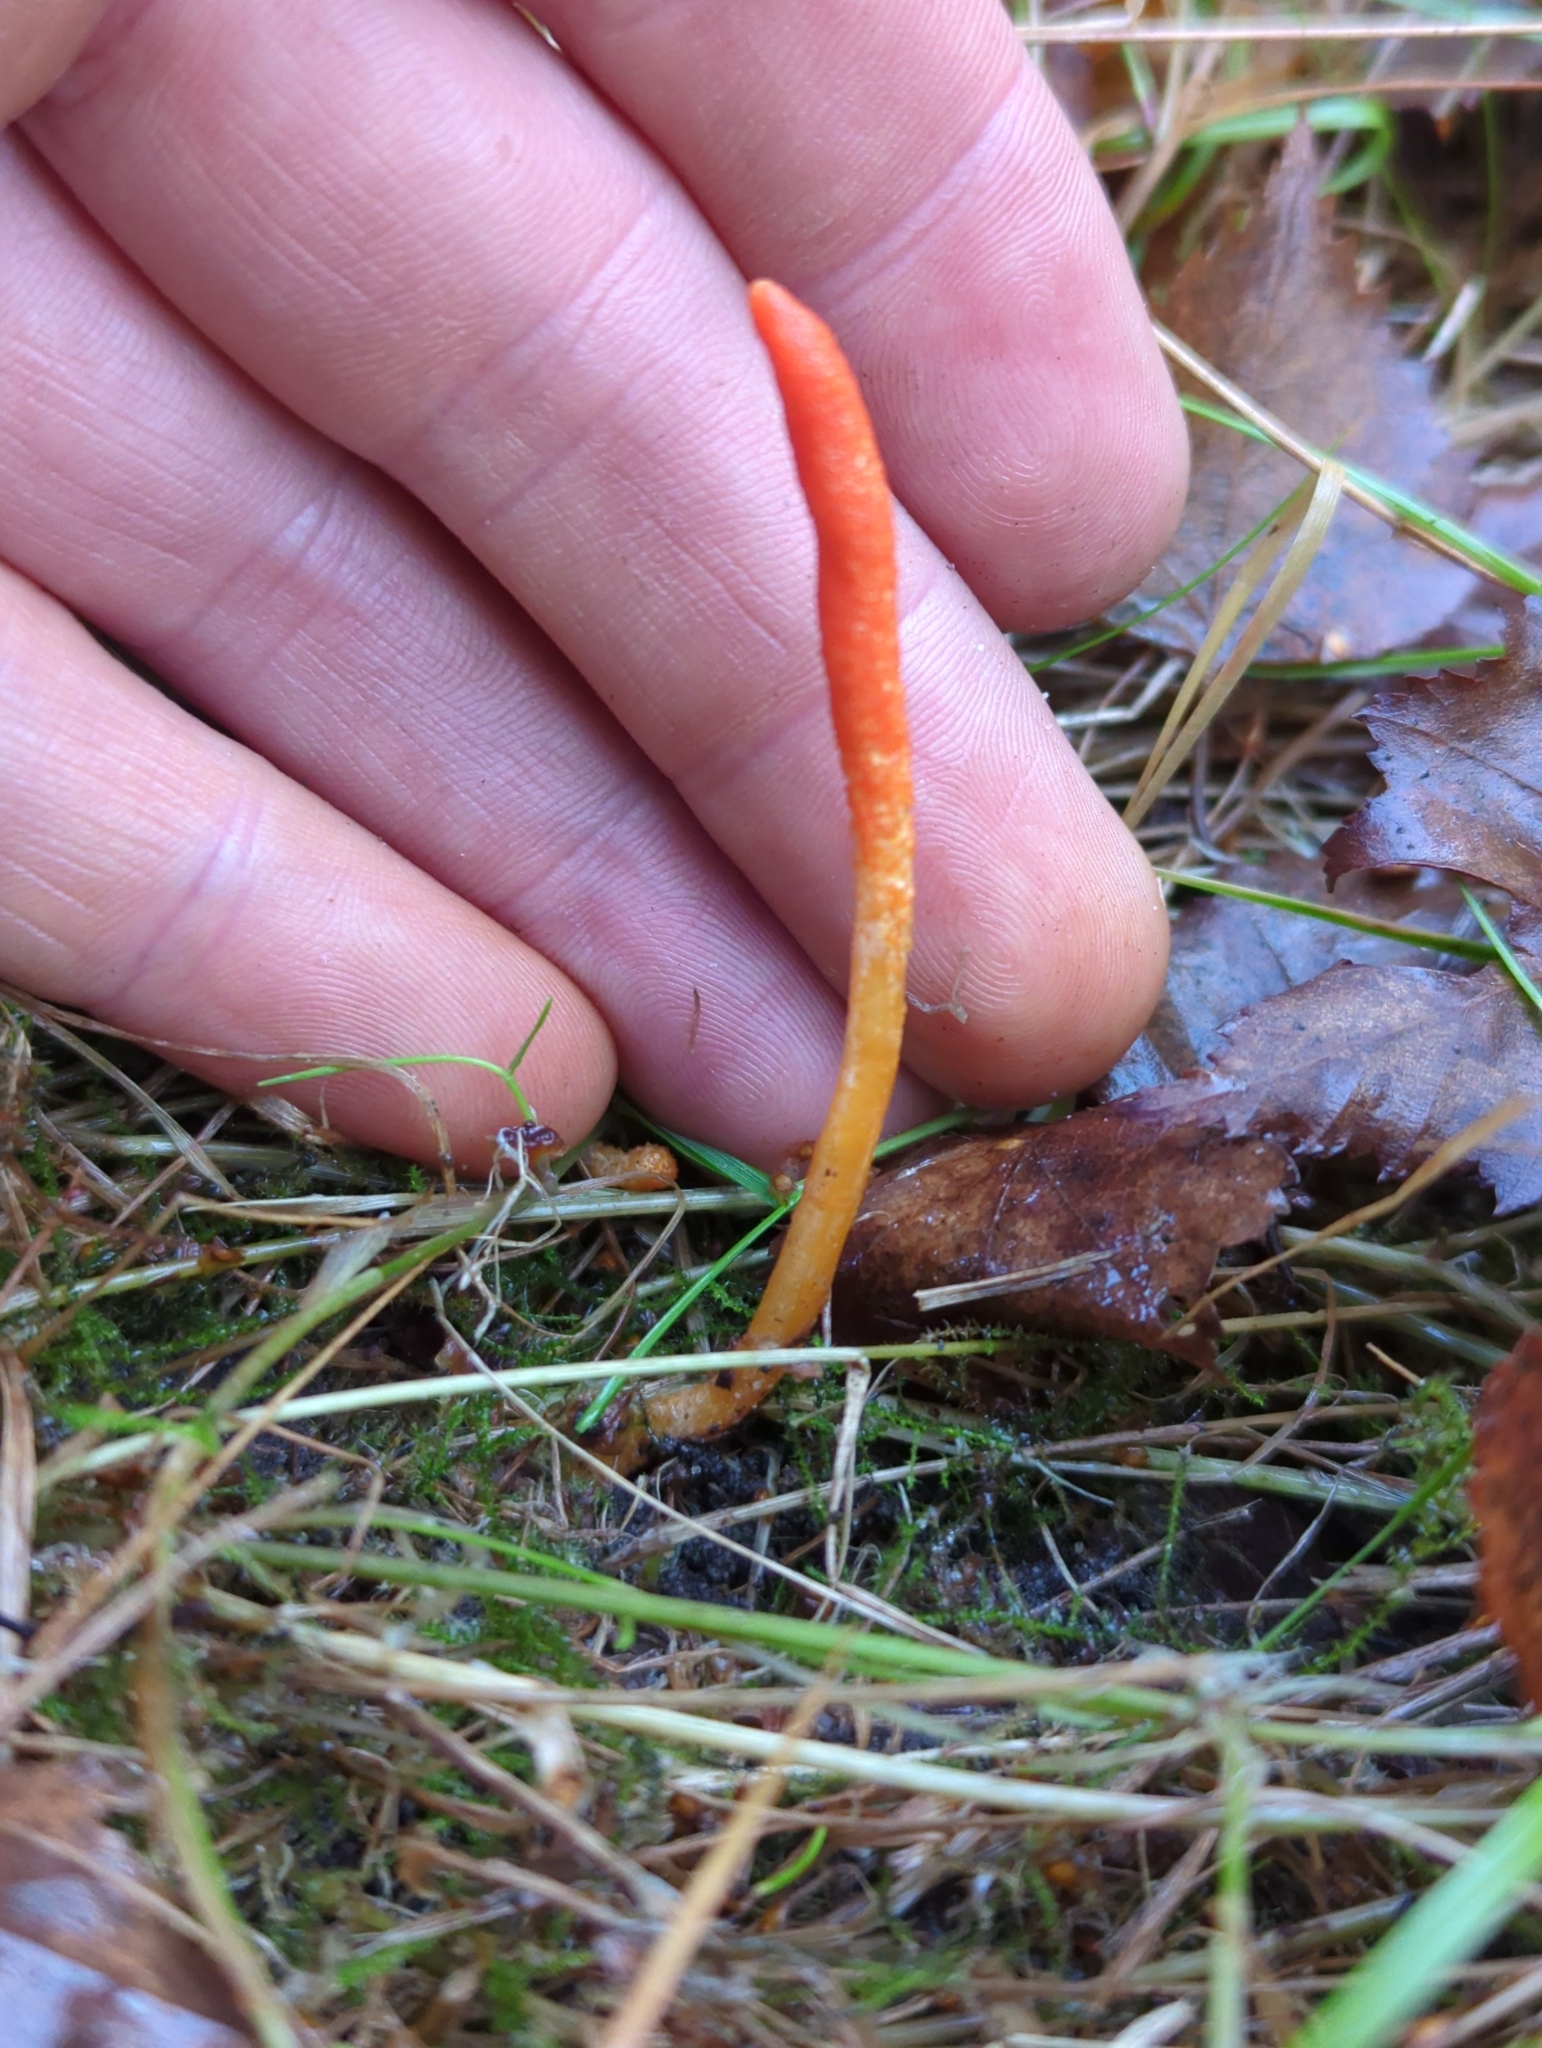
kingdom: Fungi
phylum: Ascomycota
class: Sordariomycetes
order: Hypocreales
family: Cordycipitaceae
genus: Cordyceps
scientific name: Cordyceps militaris
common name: Scarlet caterpillar fungus
